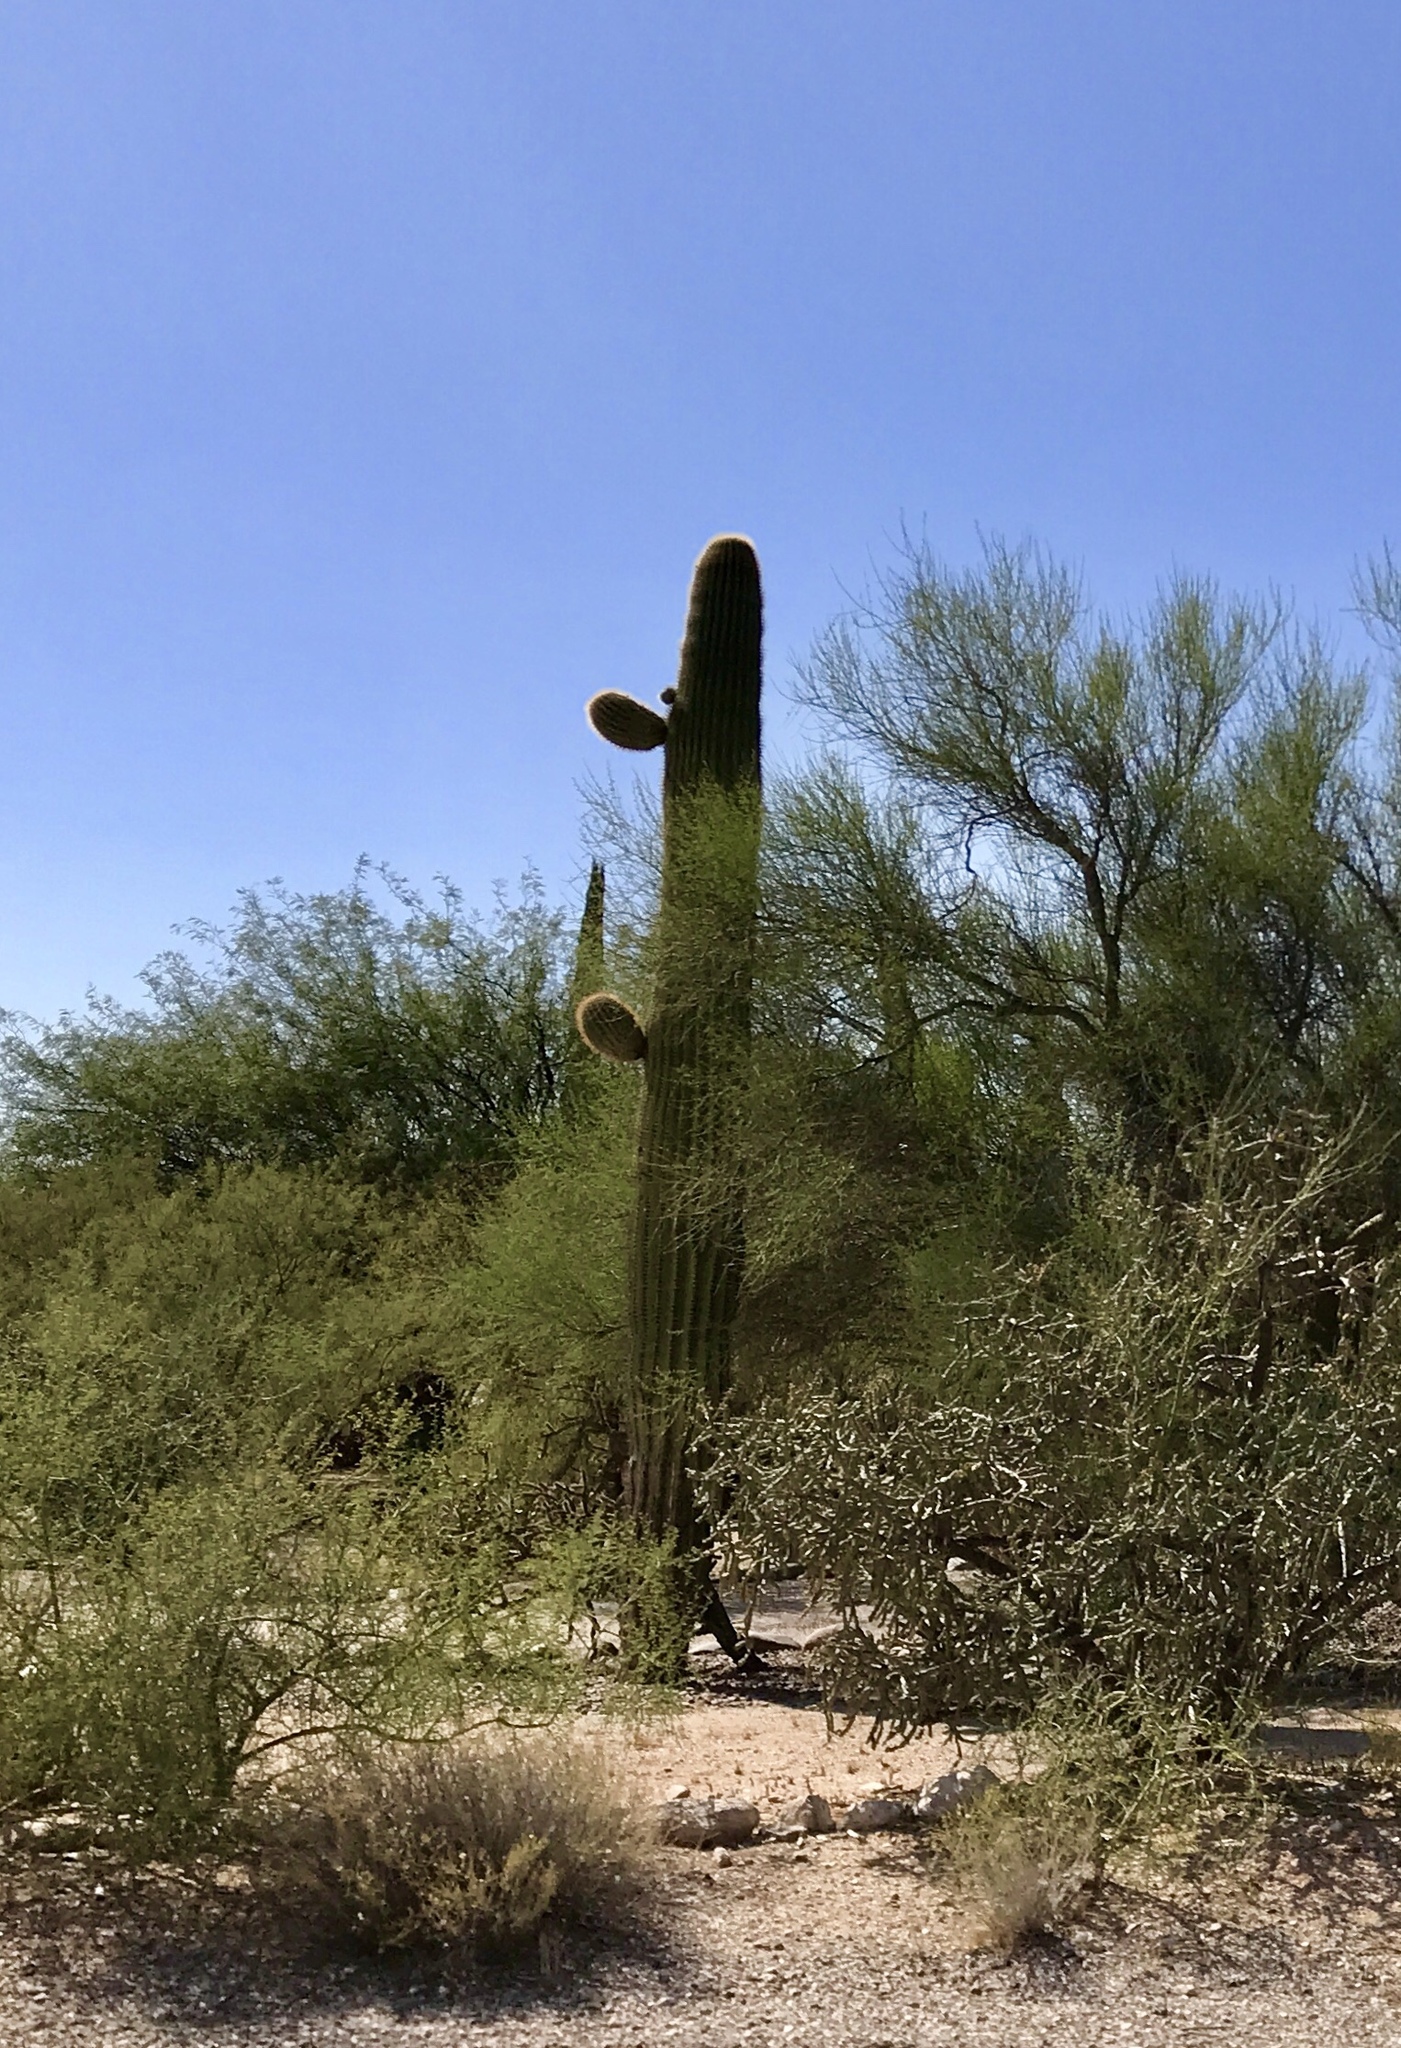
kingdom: Plantae
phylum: Tracheophyta
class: Magnoliopsida
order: Caryophyllales
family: Cactaceae
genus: Carnegiea
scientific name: Carnegiea gigantea
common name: Saguaro
